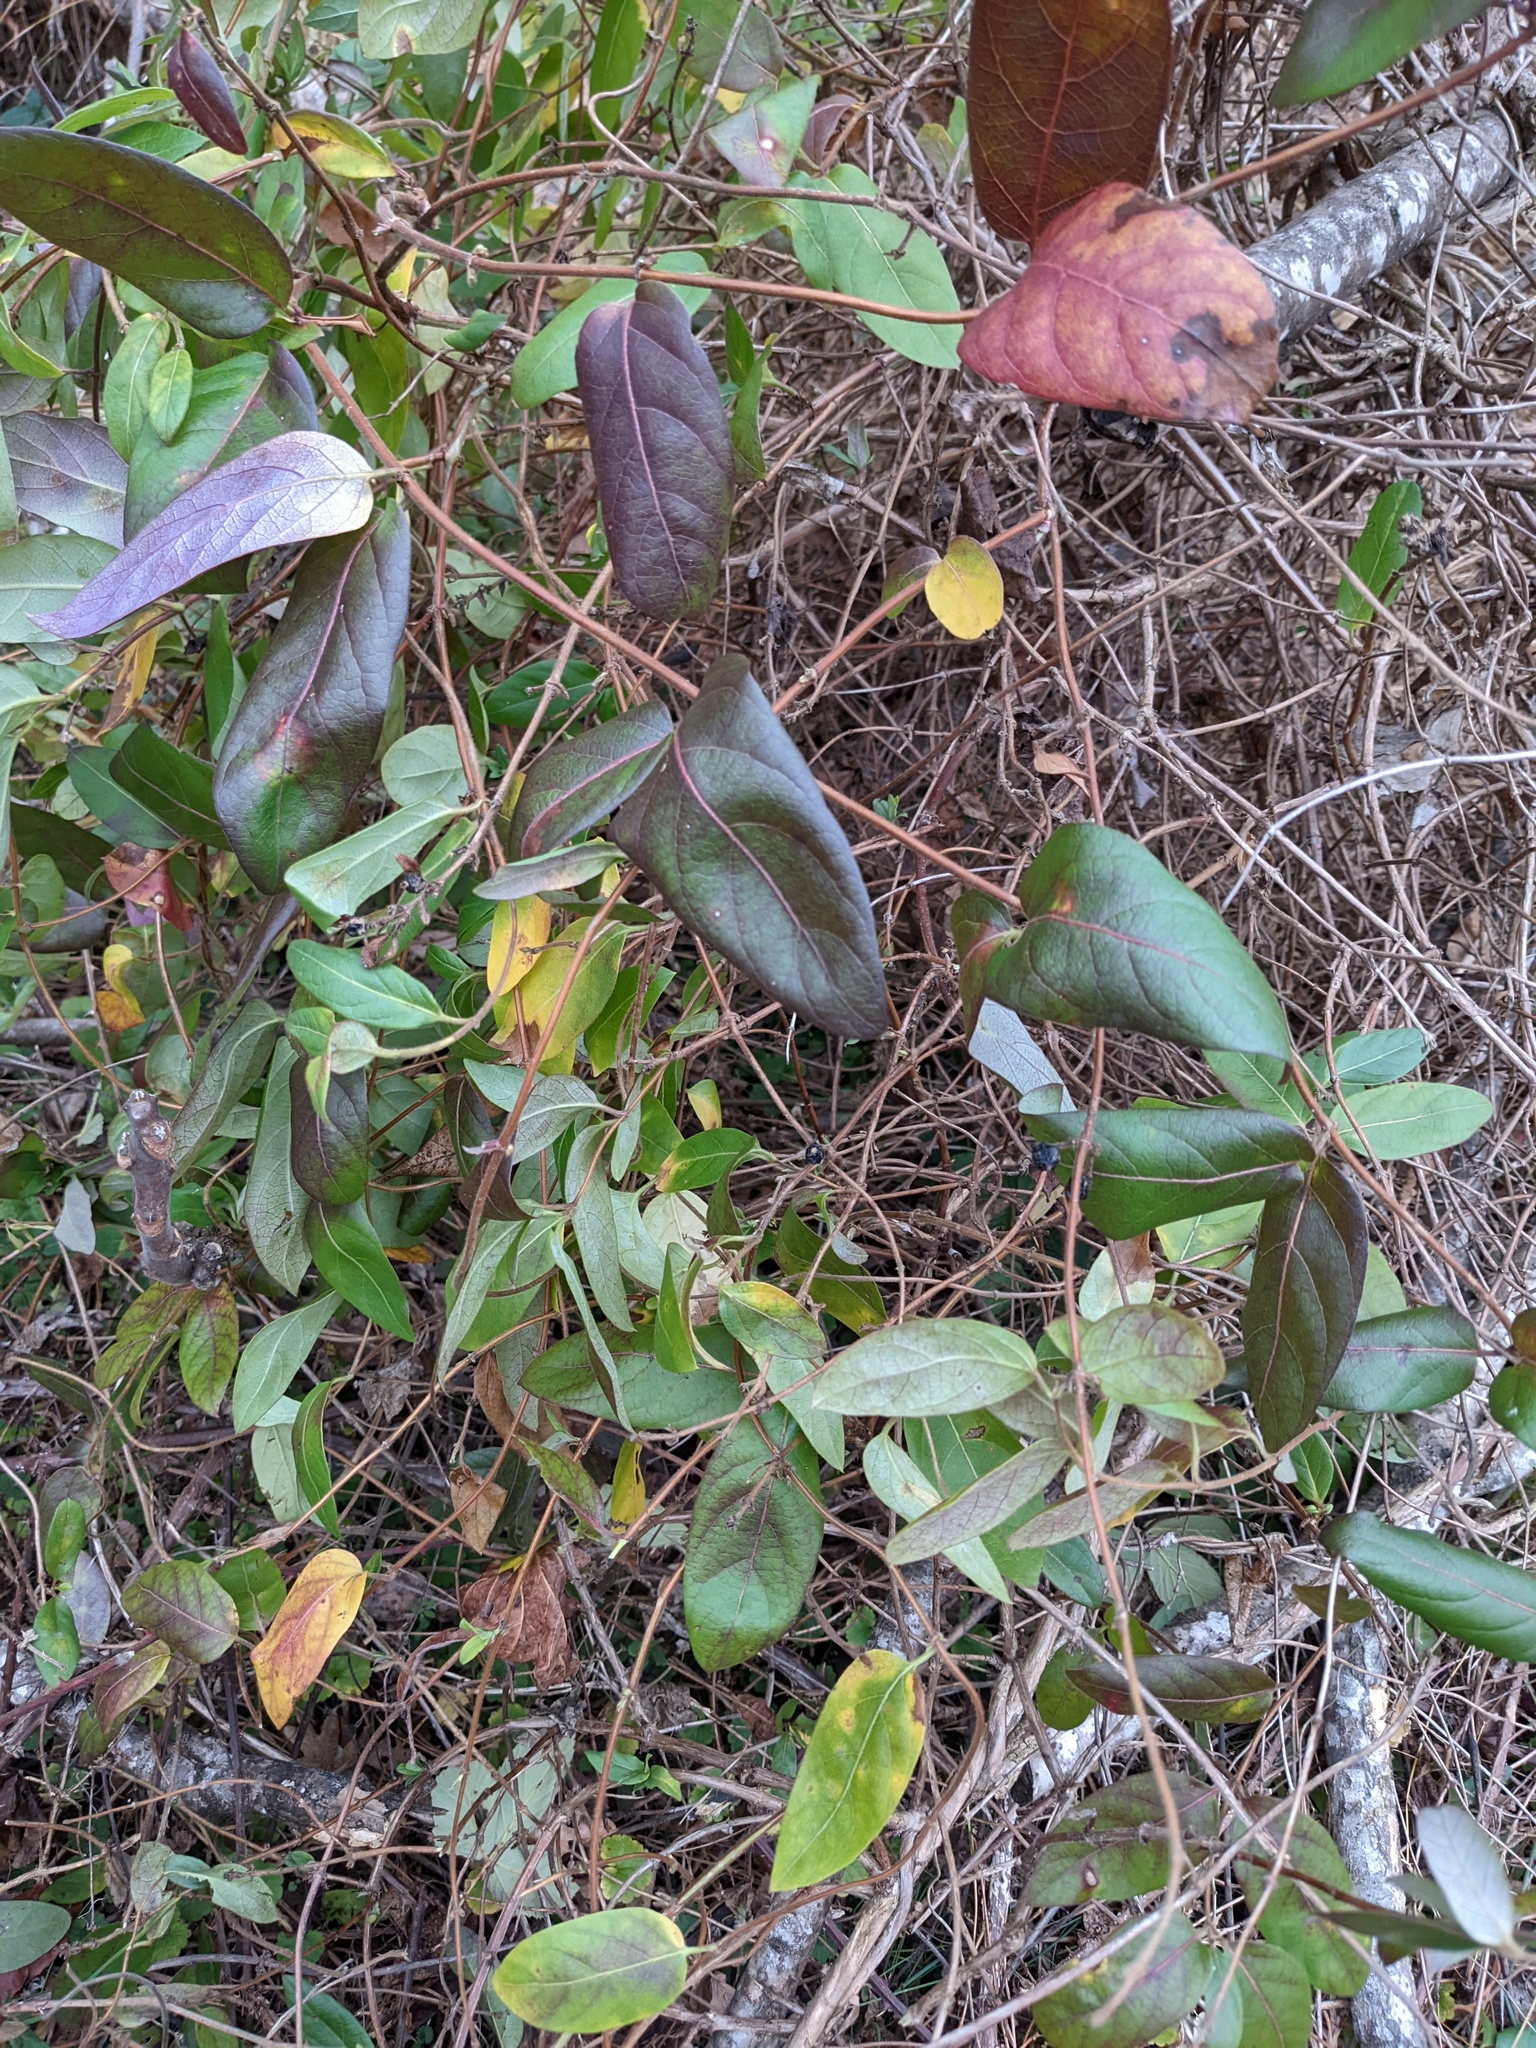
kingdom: Plantae
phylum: Tracheophyta
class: Magnoliopsida
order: Dipsacales
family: Caprifoliaceae
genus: Lonicera
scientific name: Lonicera japonica
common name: Japanese honeysuckle
